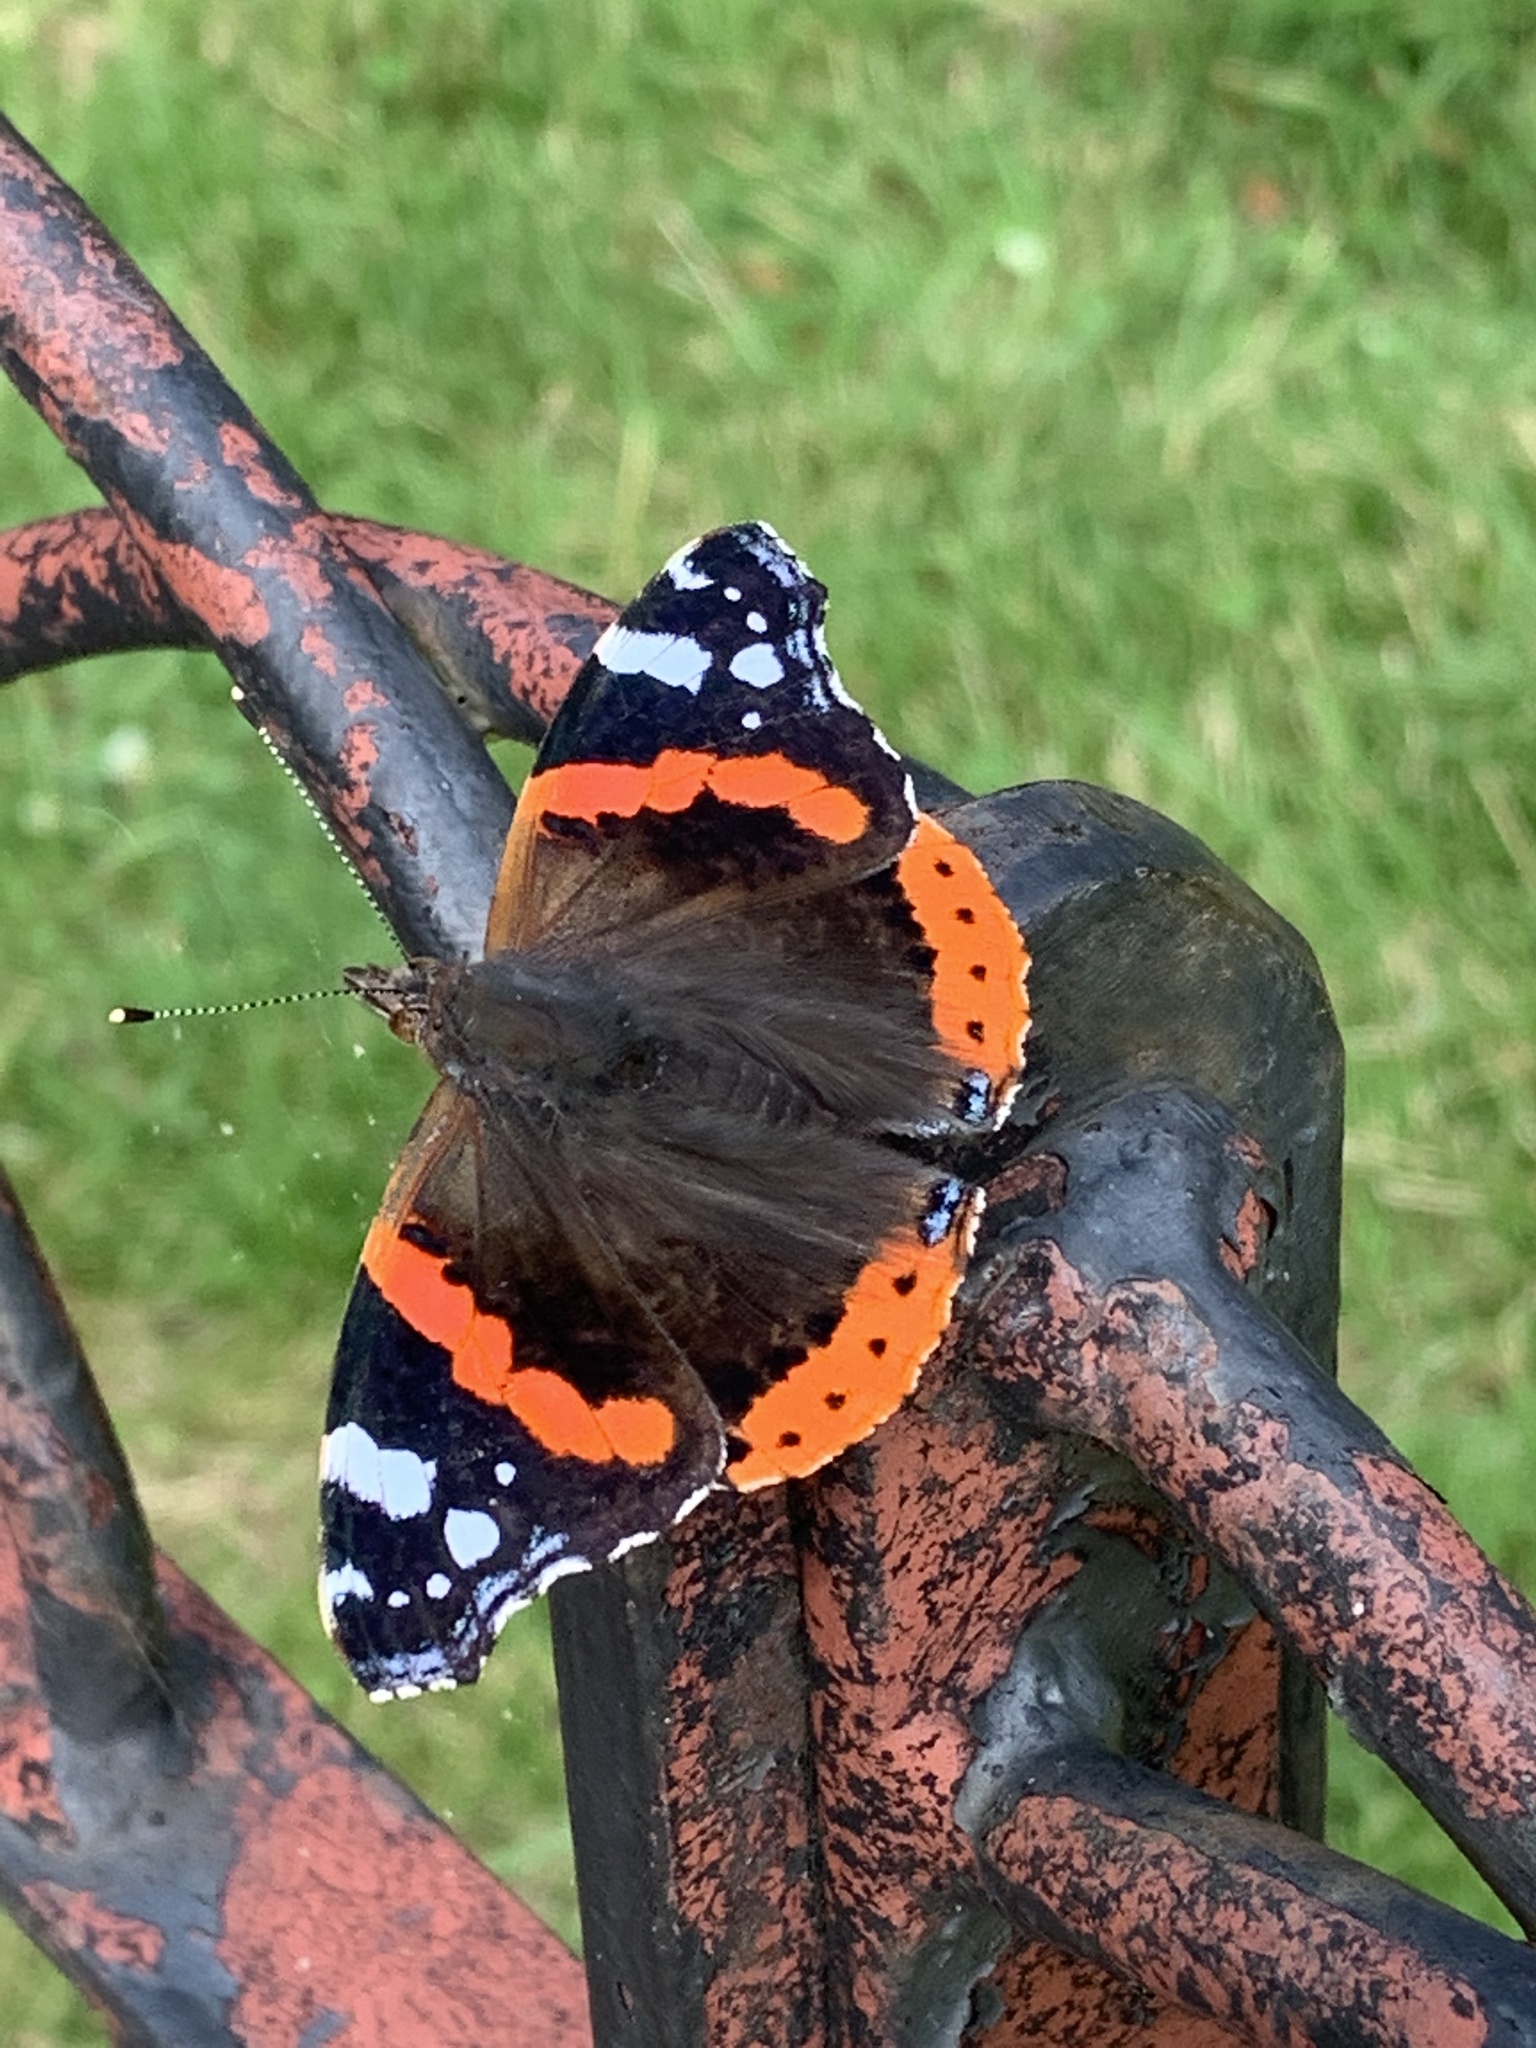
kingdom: Animalia
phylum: Arthropoda
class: Insecta
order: Lepidoptera
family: Nymphalidae
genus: Vanessa
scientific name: Vanessa atalanta
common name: Red admiral
